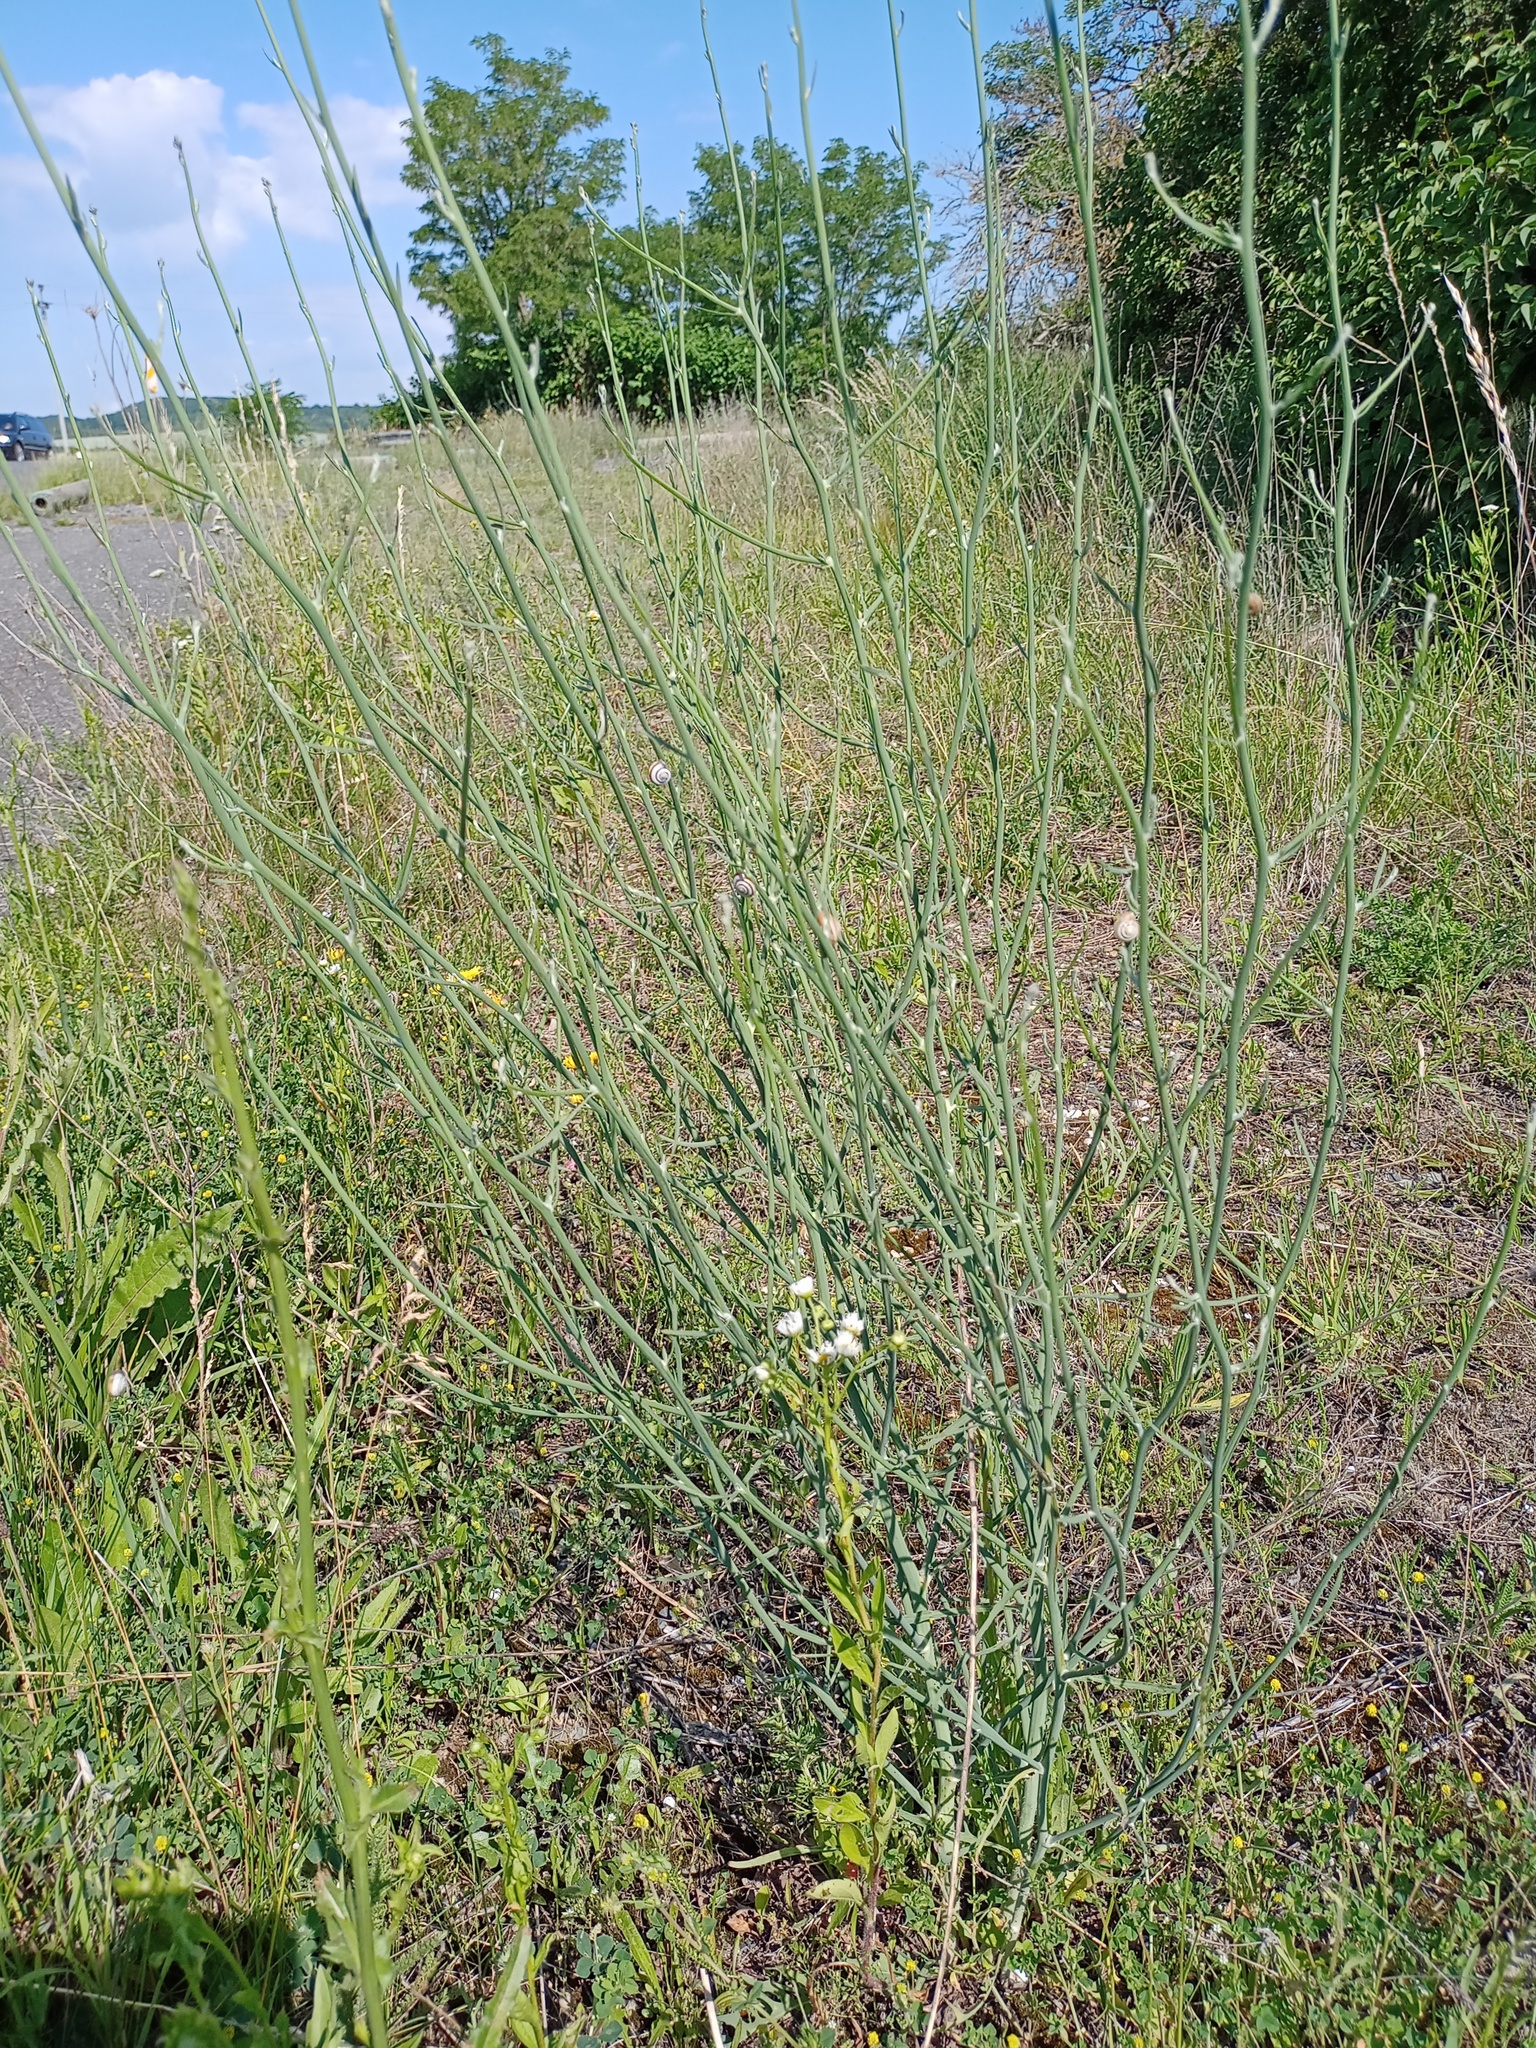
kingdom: Plantae
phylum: Tracheophyta
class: Magnoliopsida
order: Asterales
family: Asteraceae
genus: Chondrilla
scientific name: Chondrilla juncea
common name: Skeleton weed
